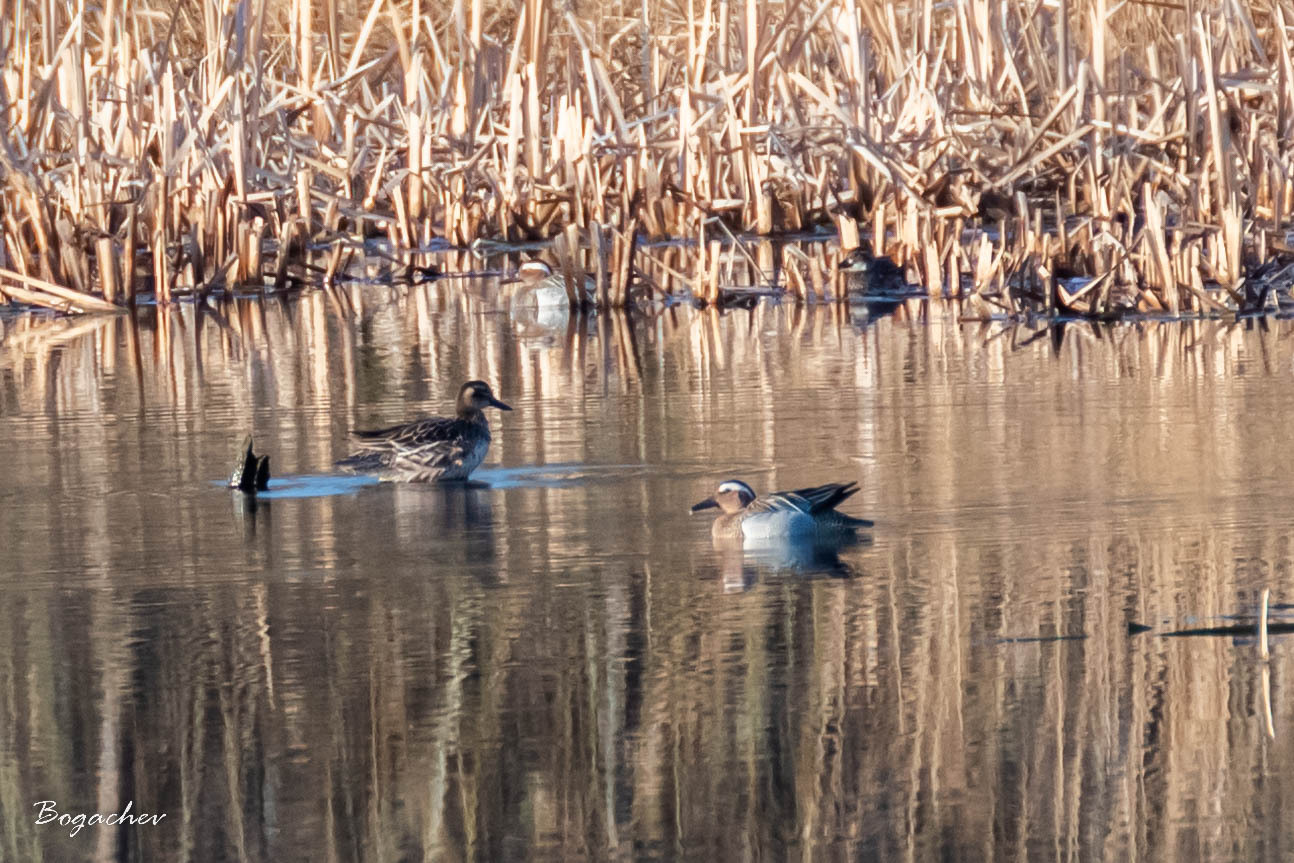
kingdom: Animalia
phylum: Chordata
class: Aves
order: Anseriformes
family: Anatidae
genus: Spatula
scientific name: Spatula querquedula
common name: Garganey
